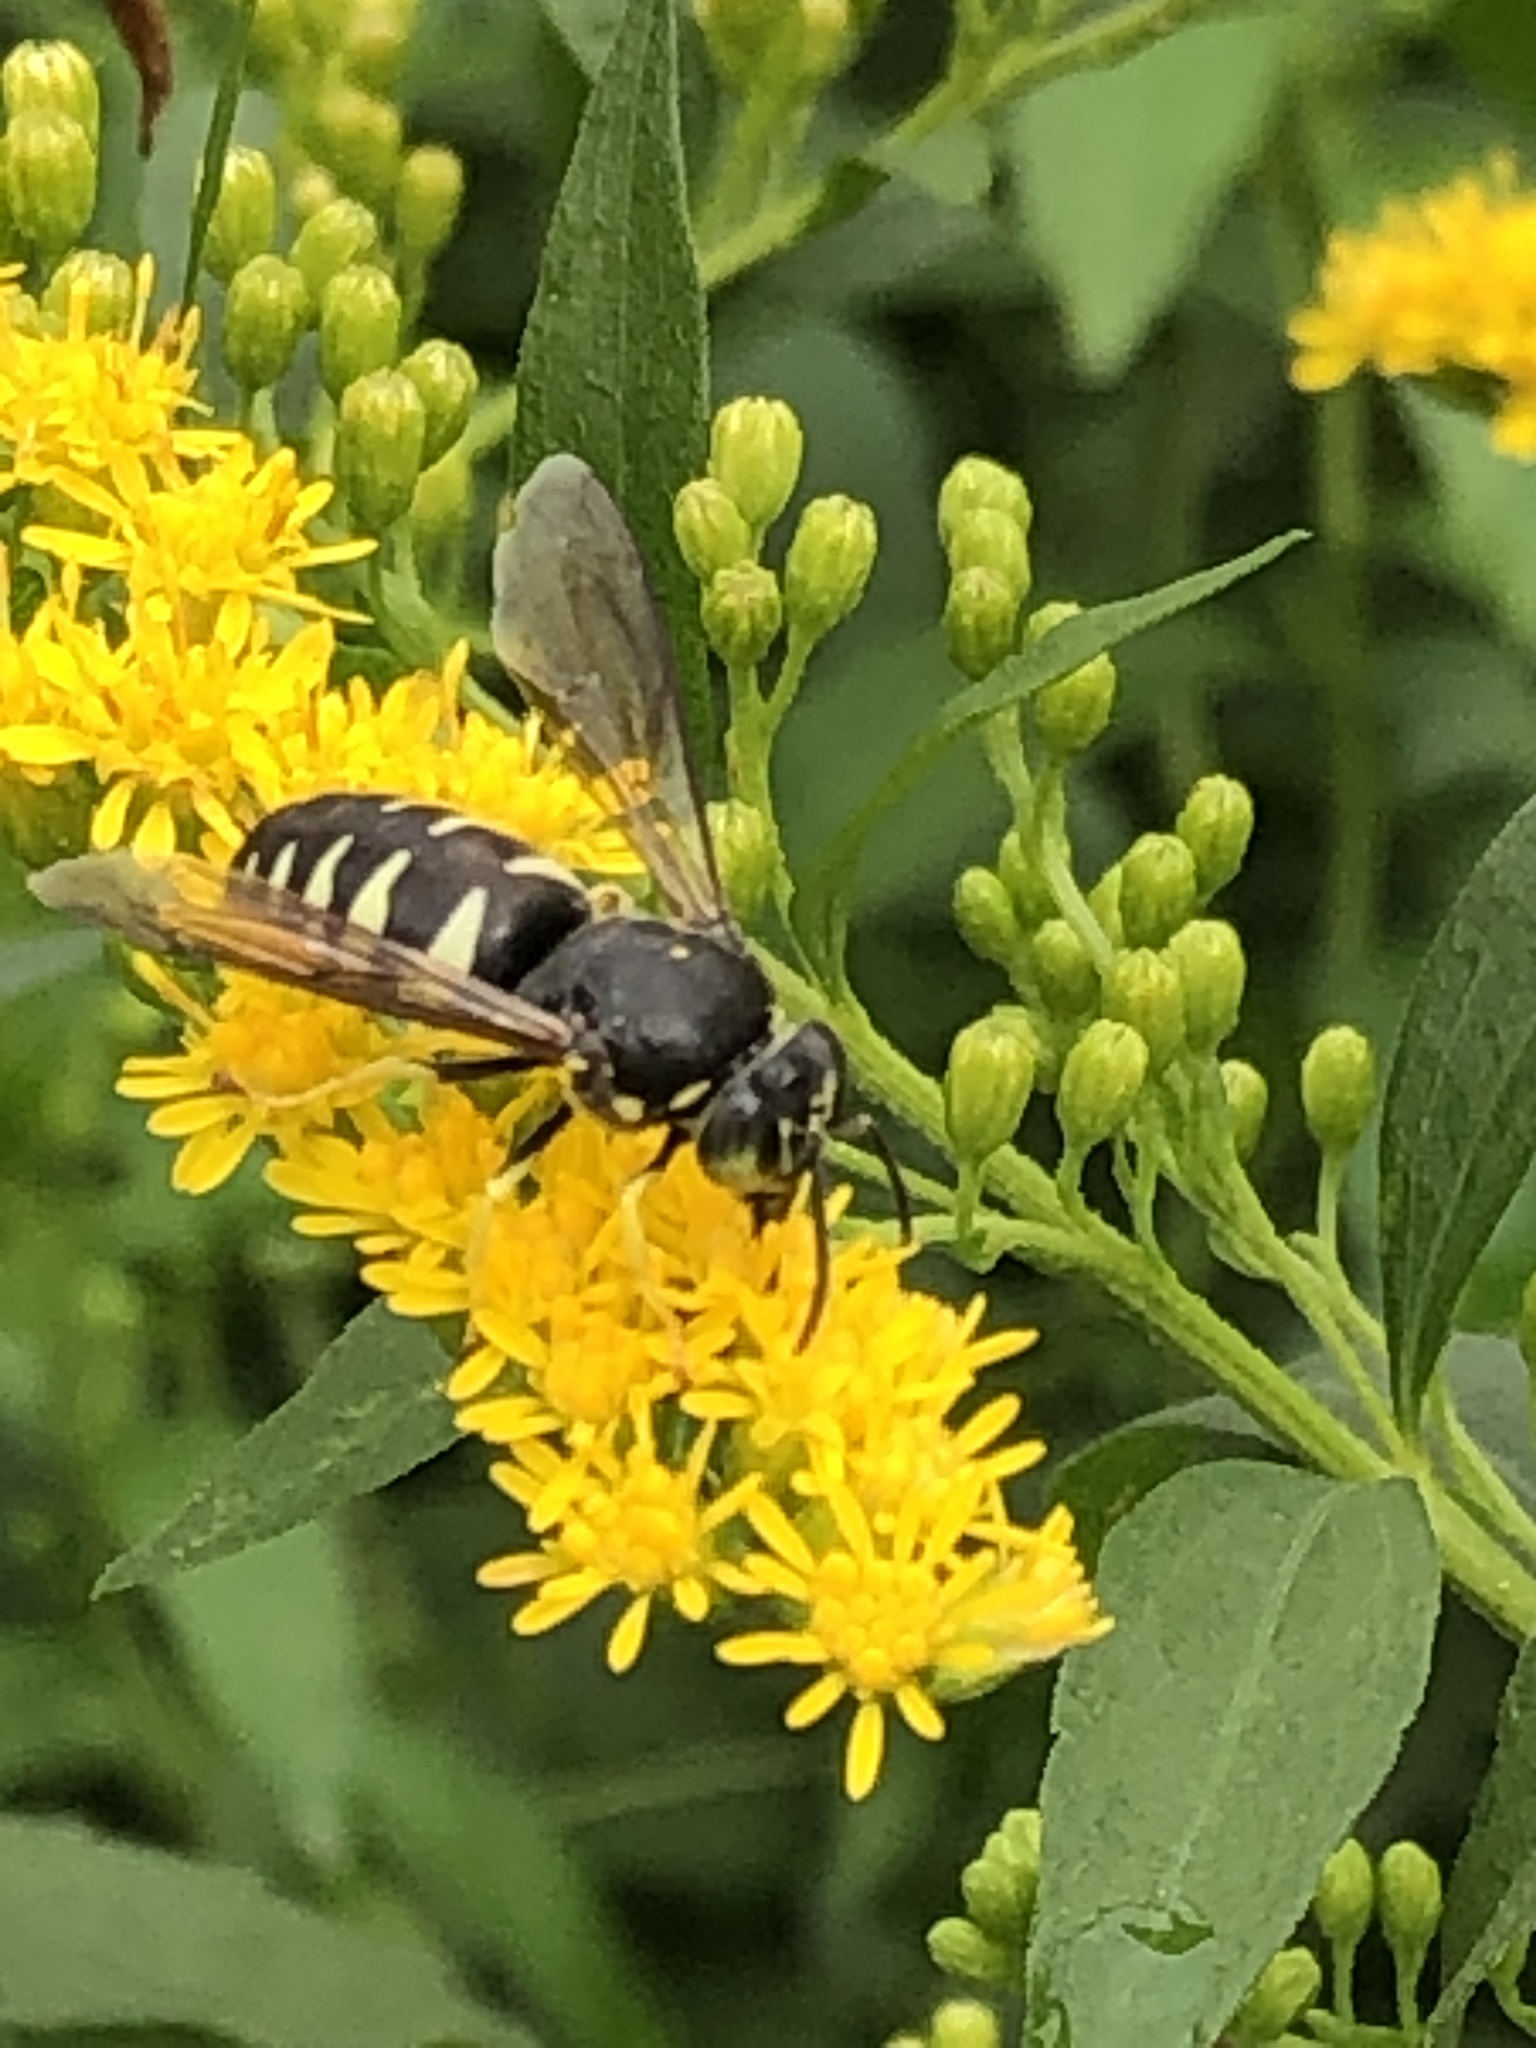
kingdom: Animalia
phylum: Arthropoda
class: Insecta
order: Hymenoptera
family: Crabronidae
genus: Bicyrtes
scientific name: Bicyrtes quadrifasciatus
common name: Four-banded stink bug hunter wasp
